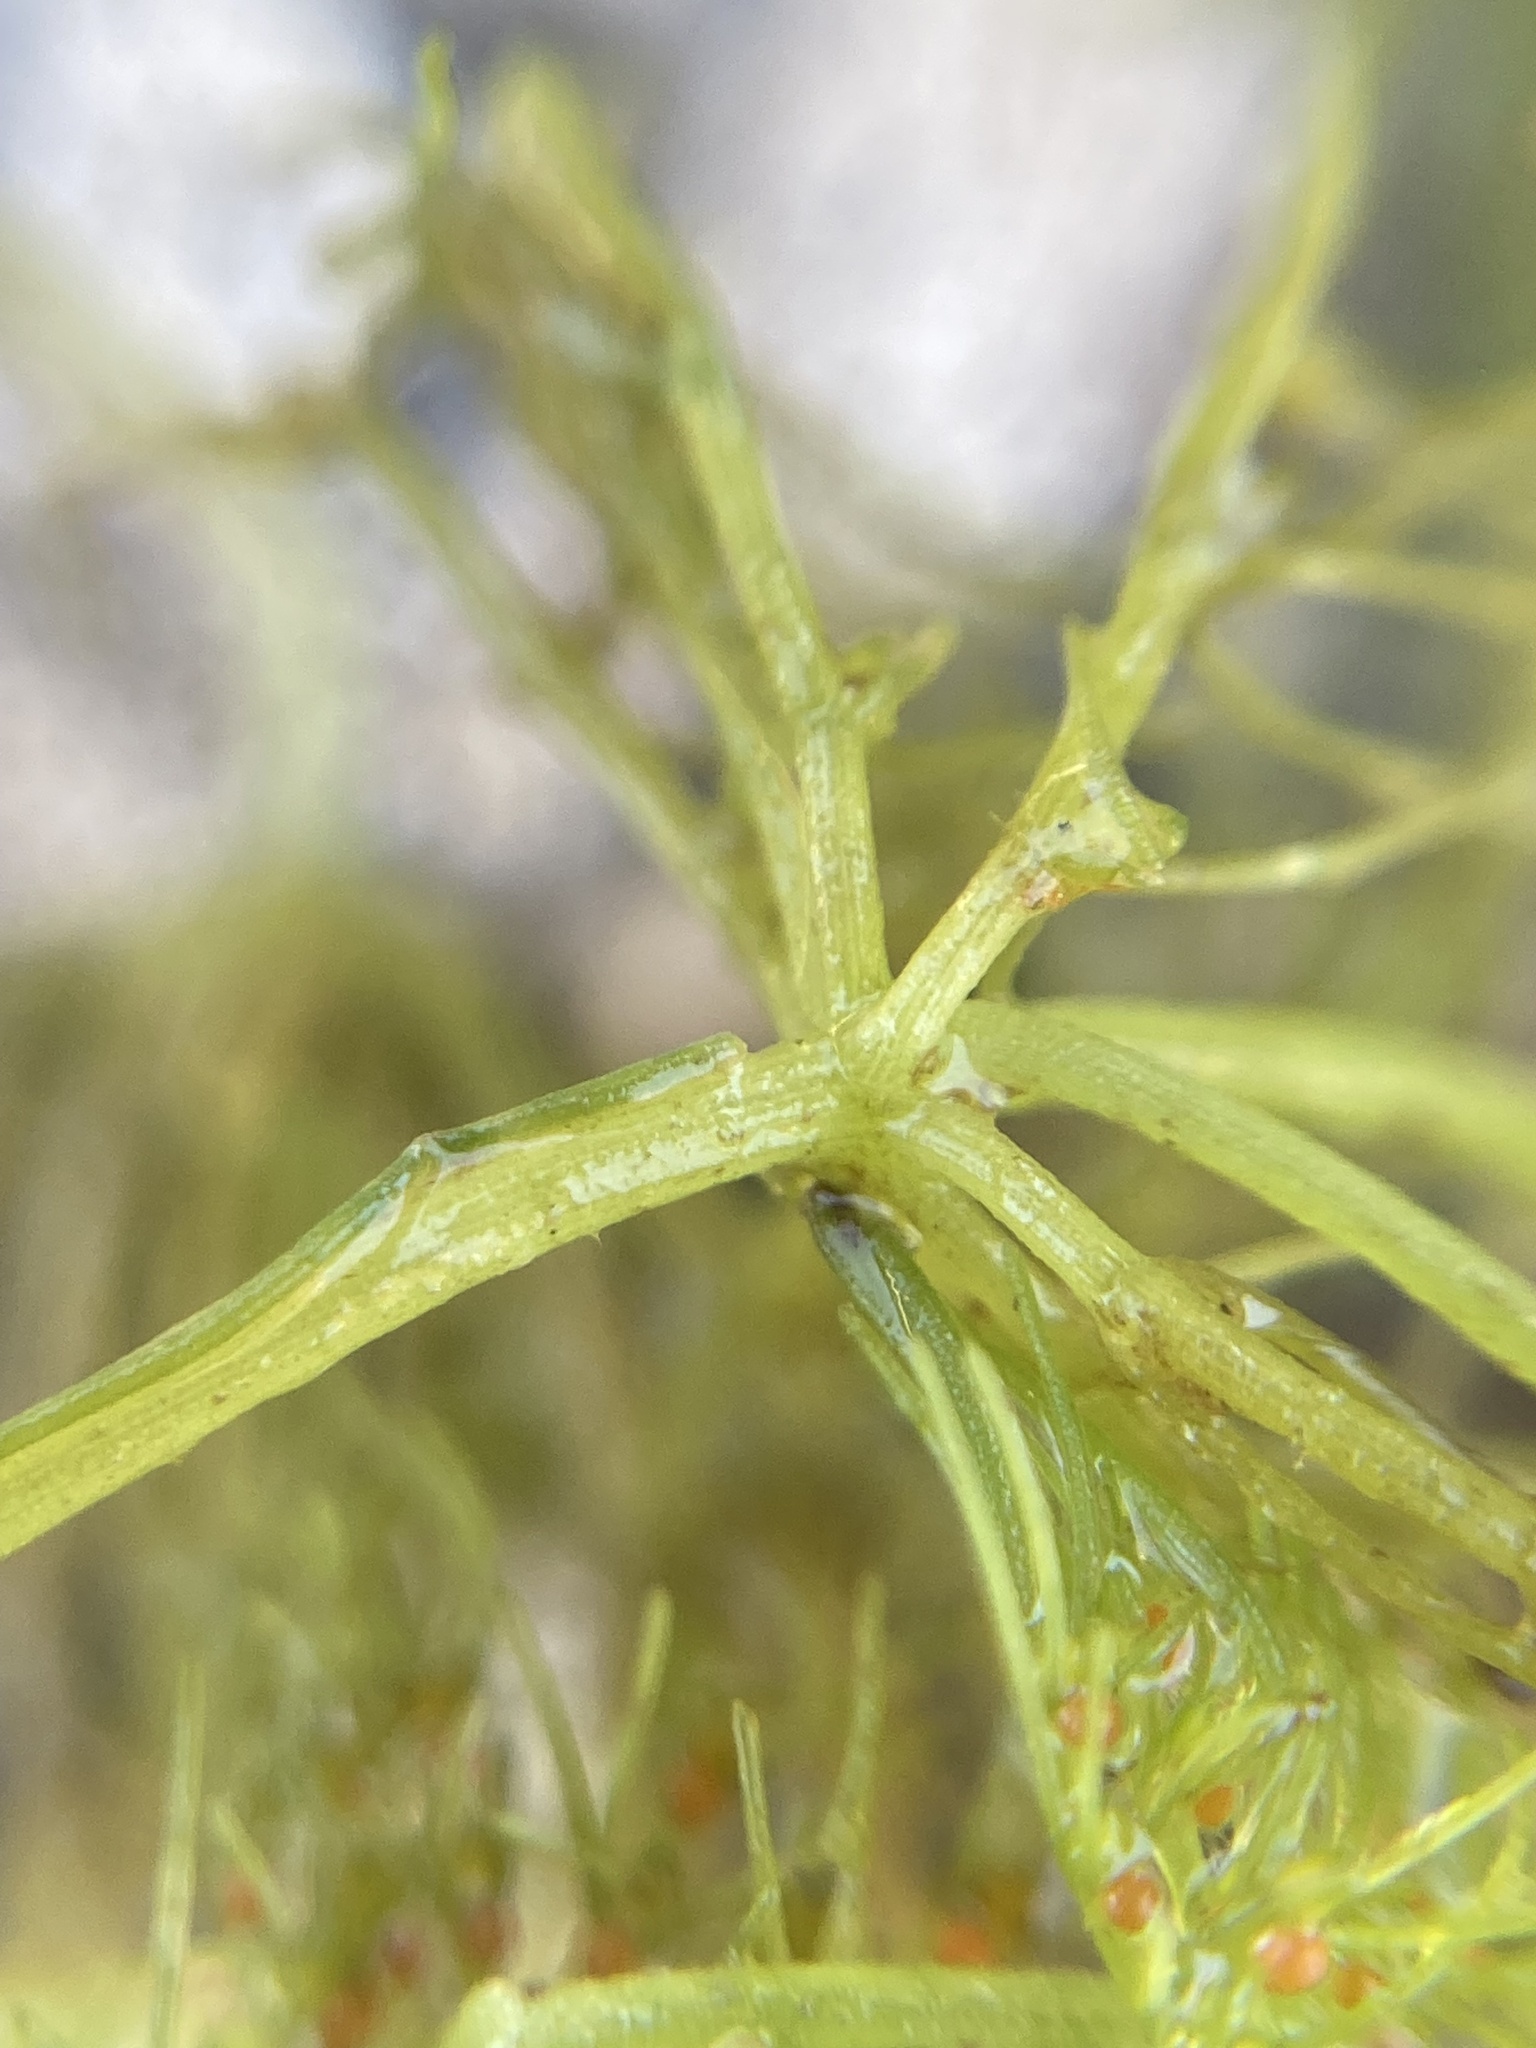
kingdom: Plantae
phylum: Charophyta
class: Charophyceae
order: Charales
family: Characeae
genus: Chara
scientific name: Chara vulgaris
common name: Common stonewort
